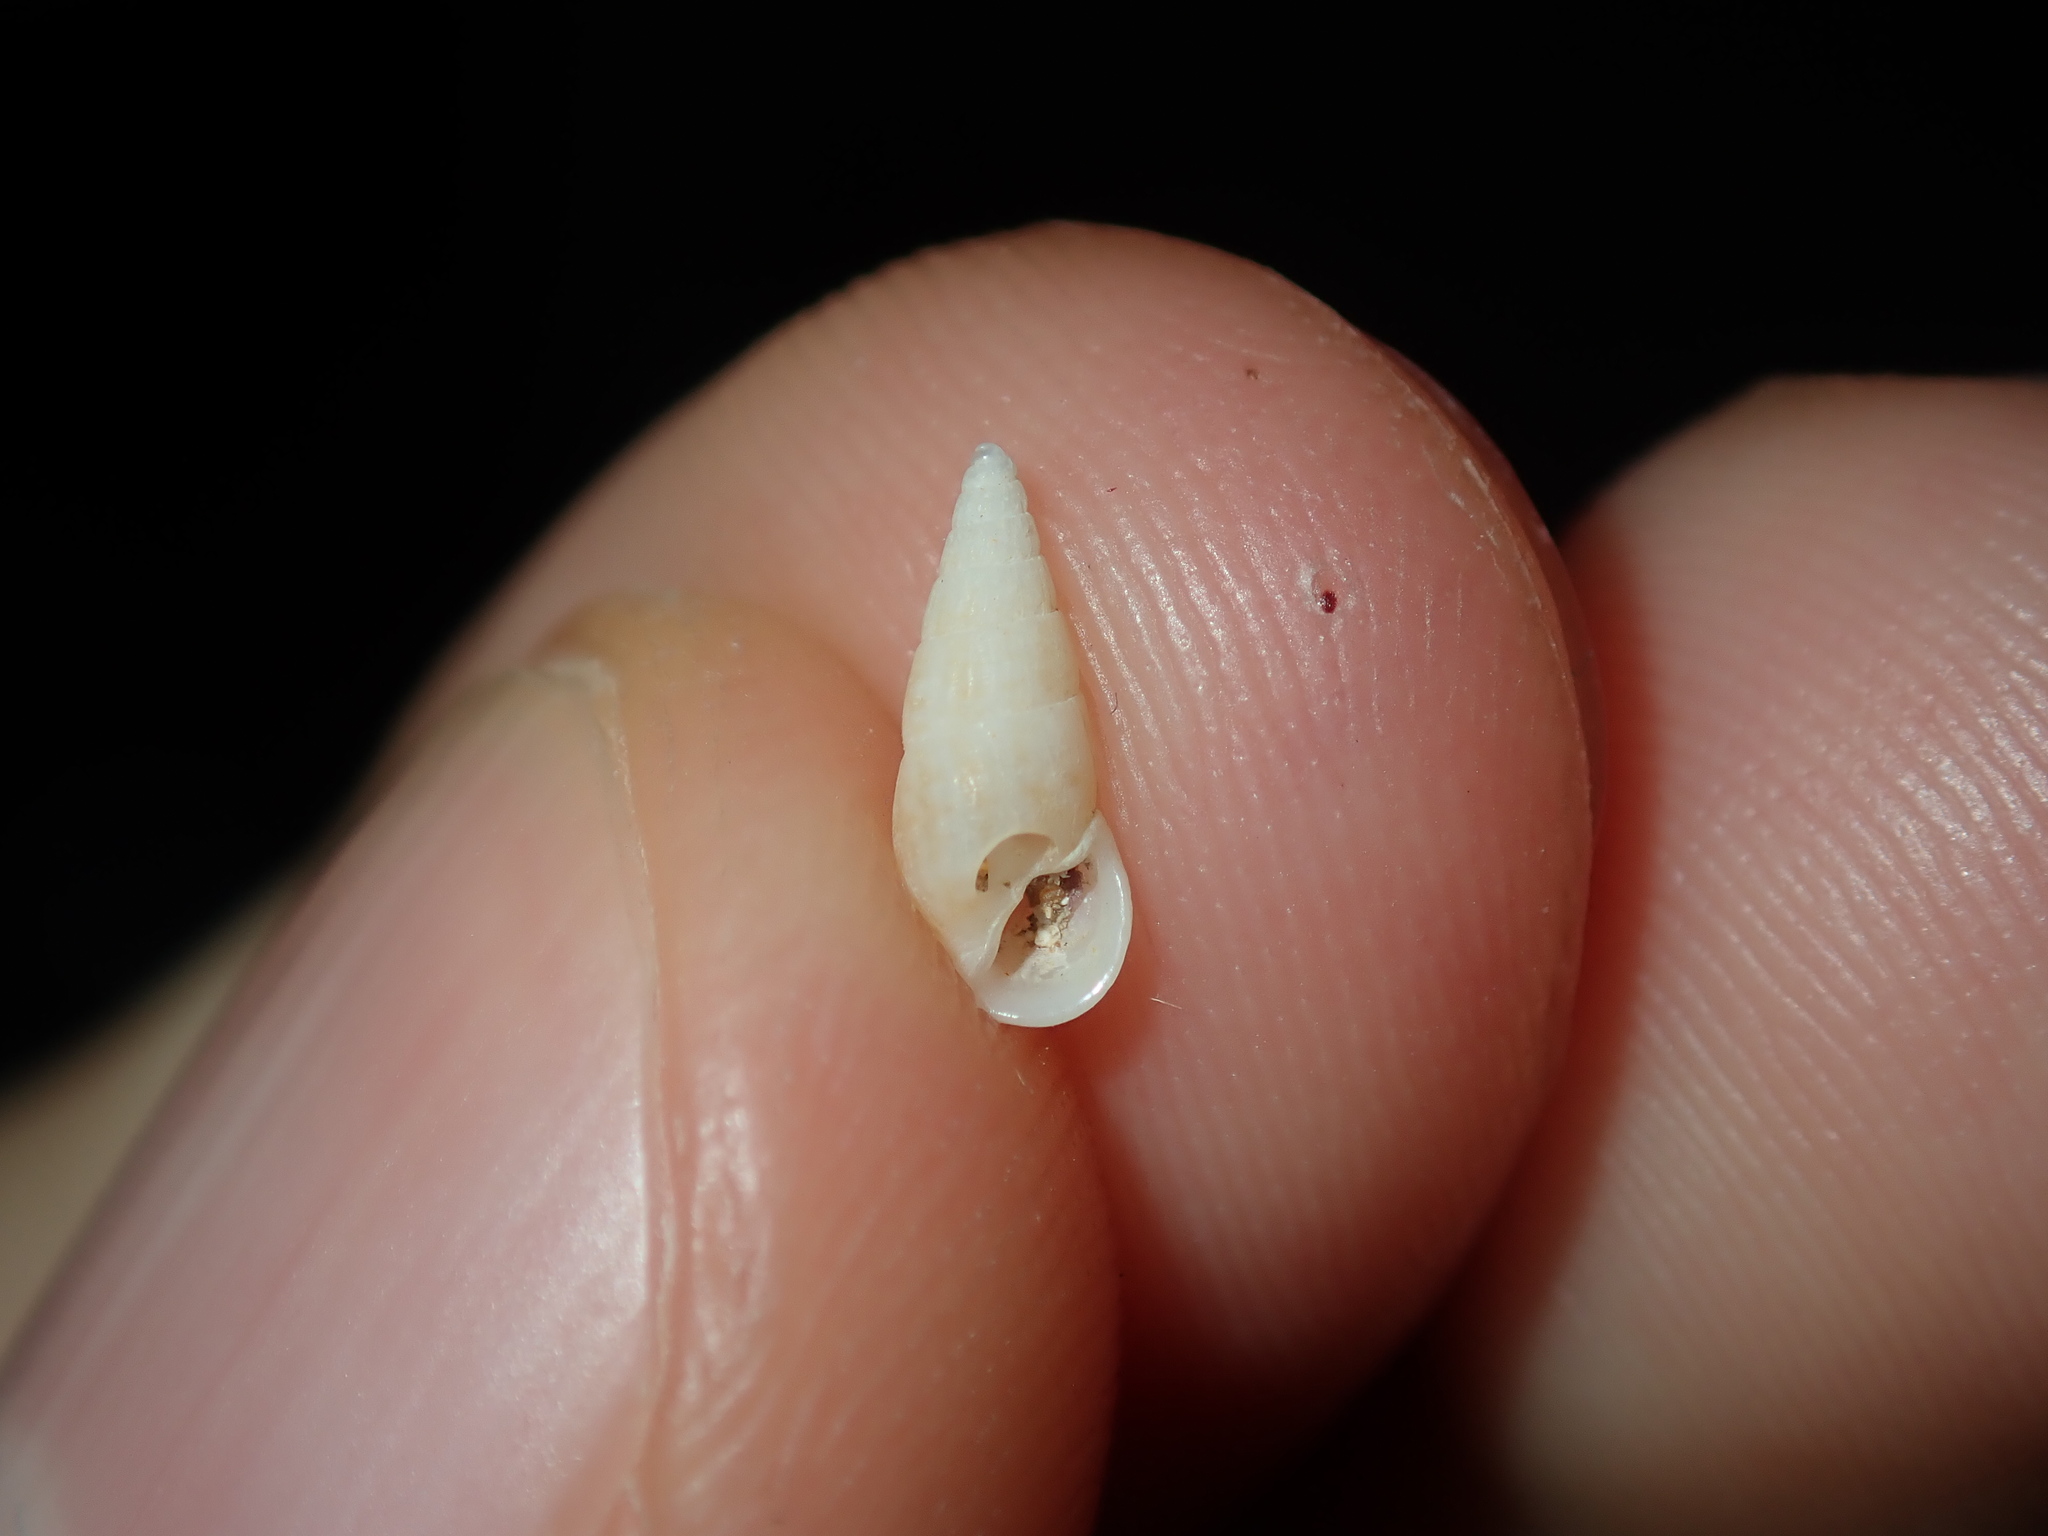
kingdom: Animalia
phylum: Mollusca
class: Gastropoda
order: Littorinimorpha
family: Rissoinidae
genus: Rissoina
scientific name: Rissoina cretacea
